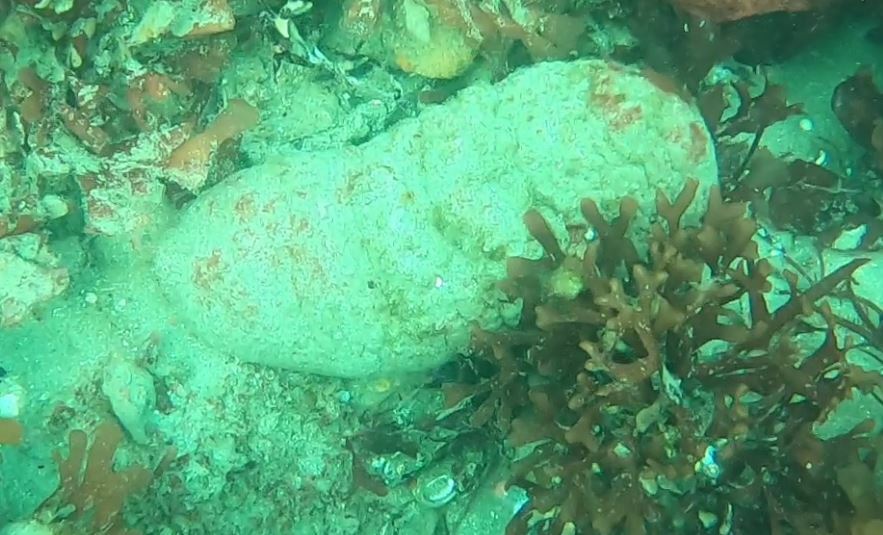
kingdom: Animalia
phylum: Mollusca
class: Polyplacophora
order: Chitonida
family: Acanthochitonidae
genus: Cryptochiton
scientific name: Cryptochiton stelleri
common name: Giant pacific chiton
